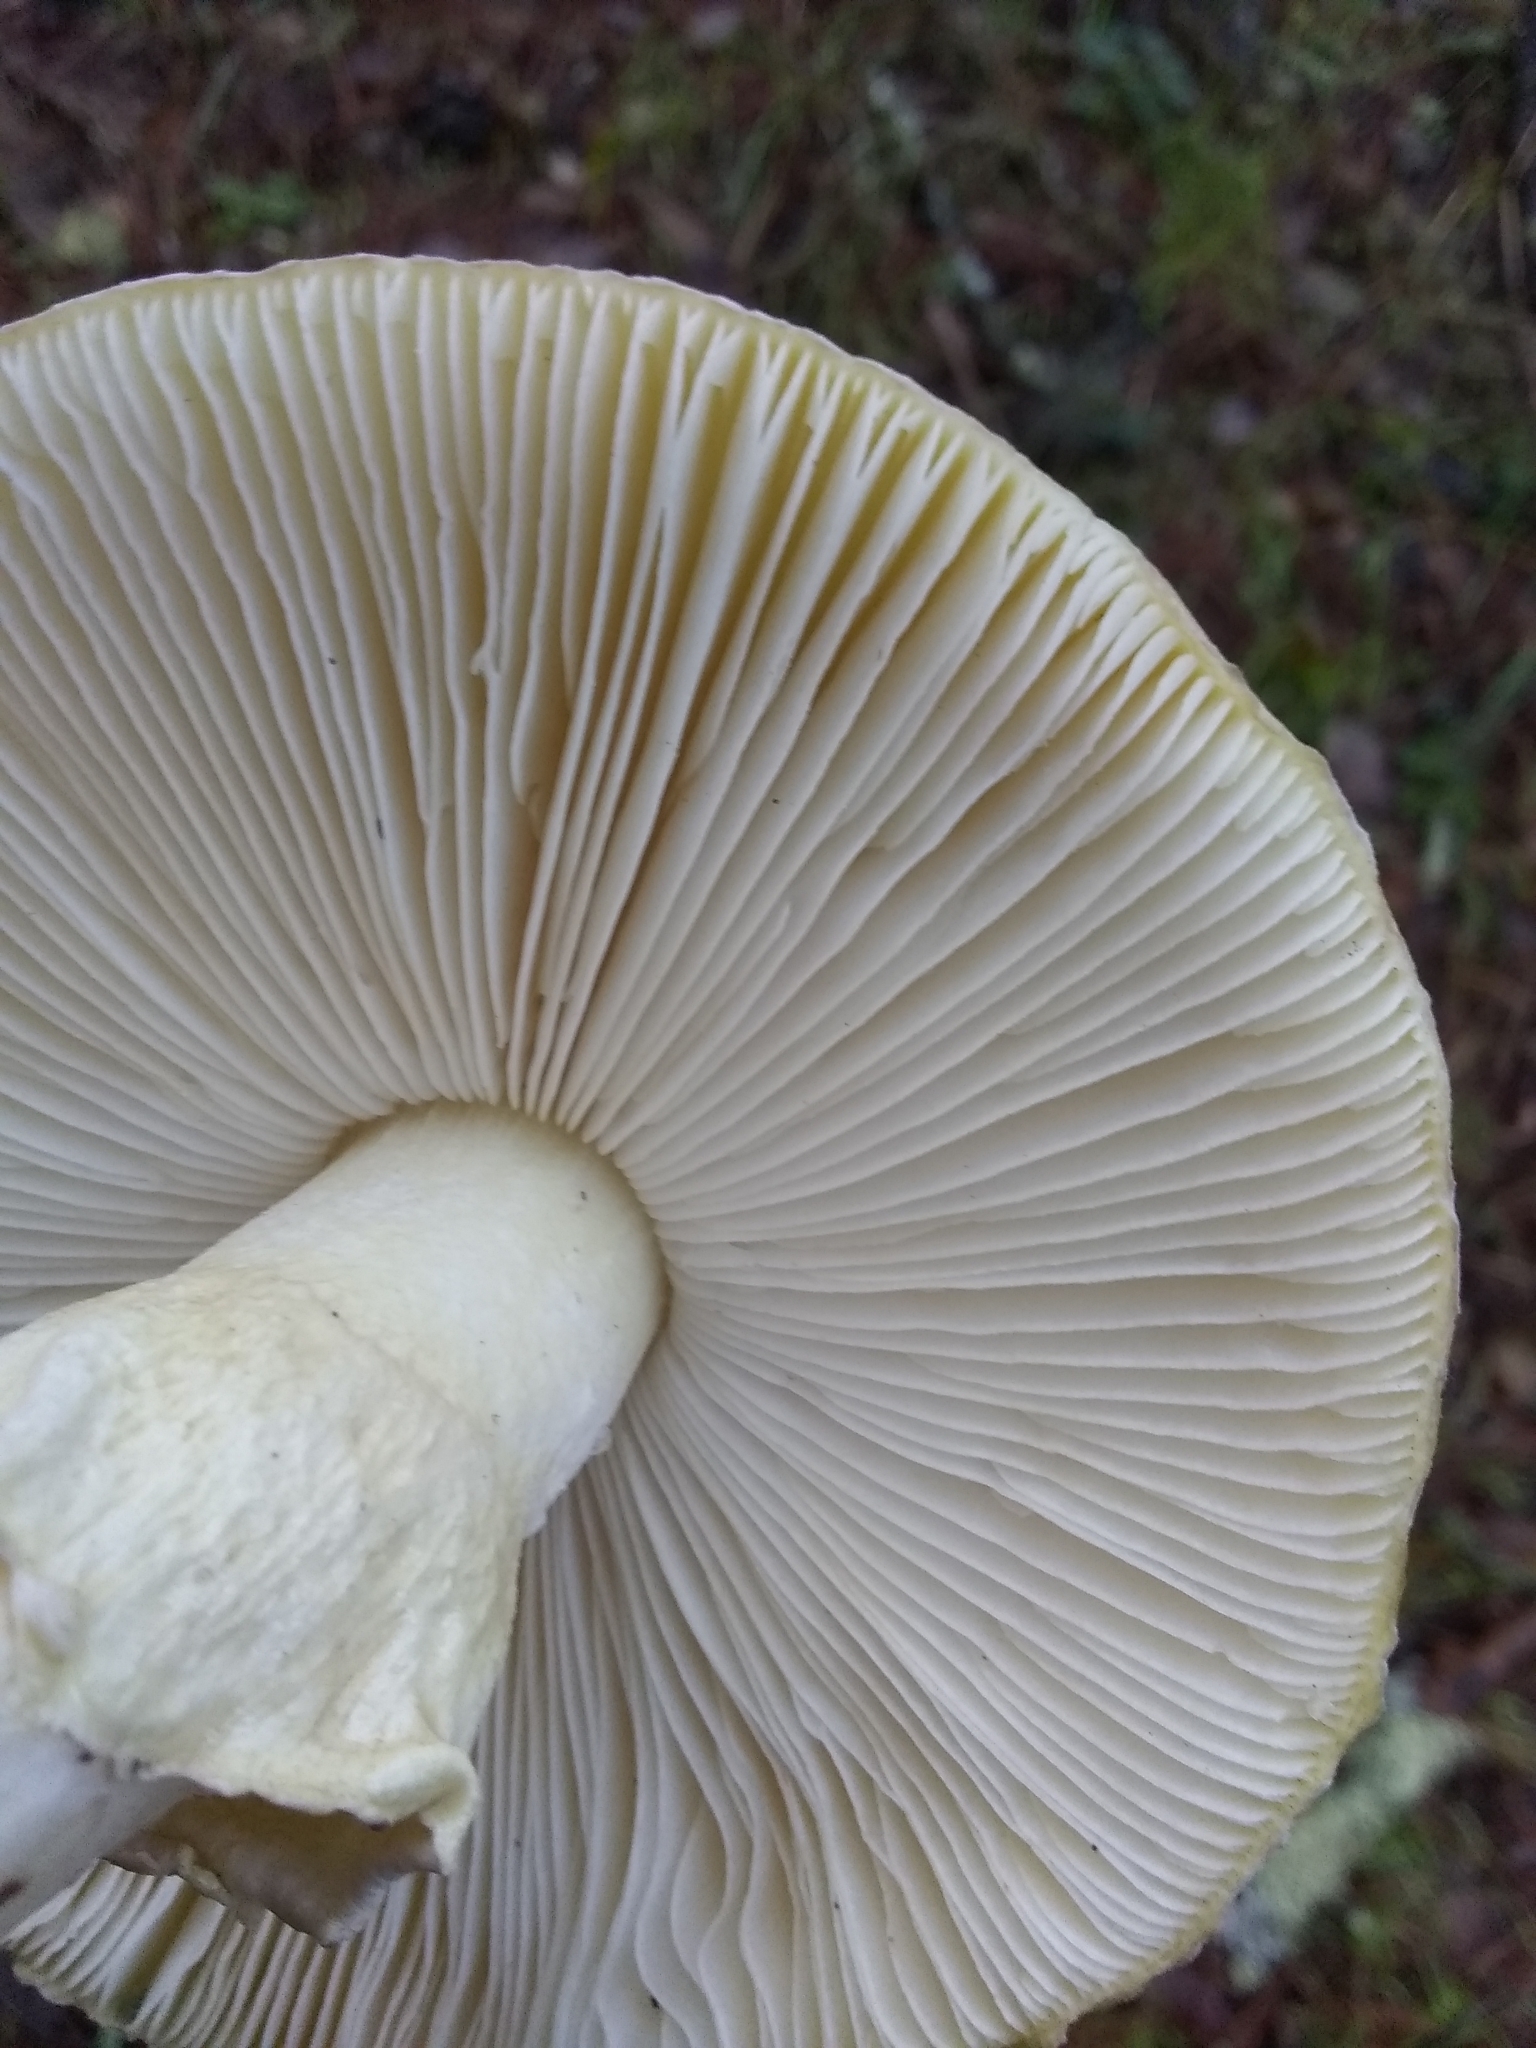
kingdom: Fungi
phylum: Basidiomycota
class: Agaricomycetes
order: Agaricales
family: Amanitaceae
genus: Amanita
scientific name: Amanita phalloides
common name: Death cap
